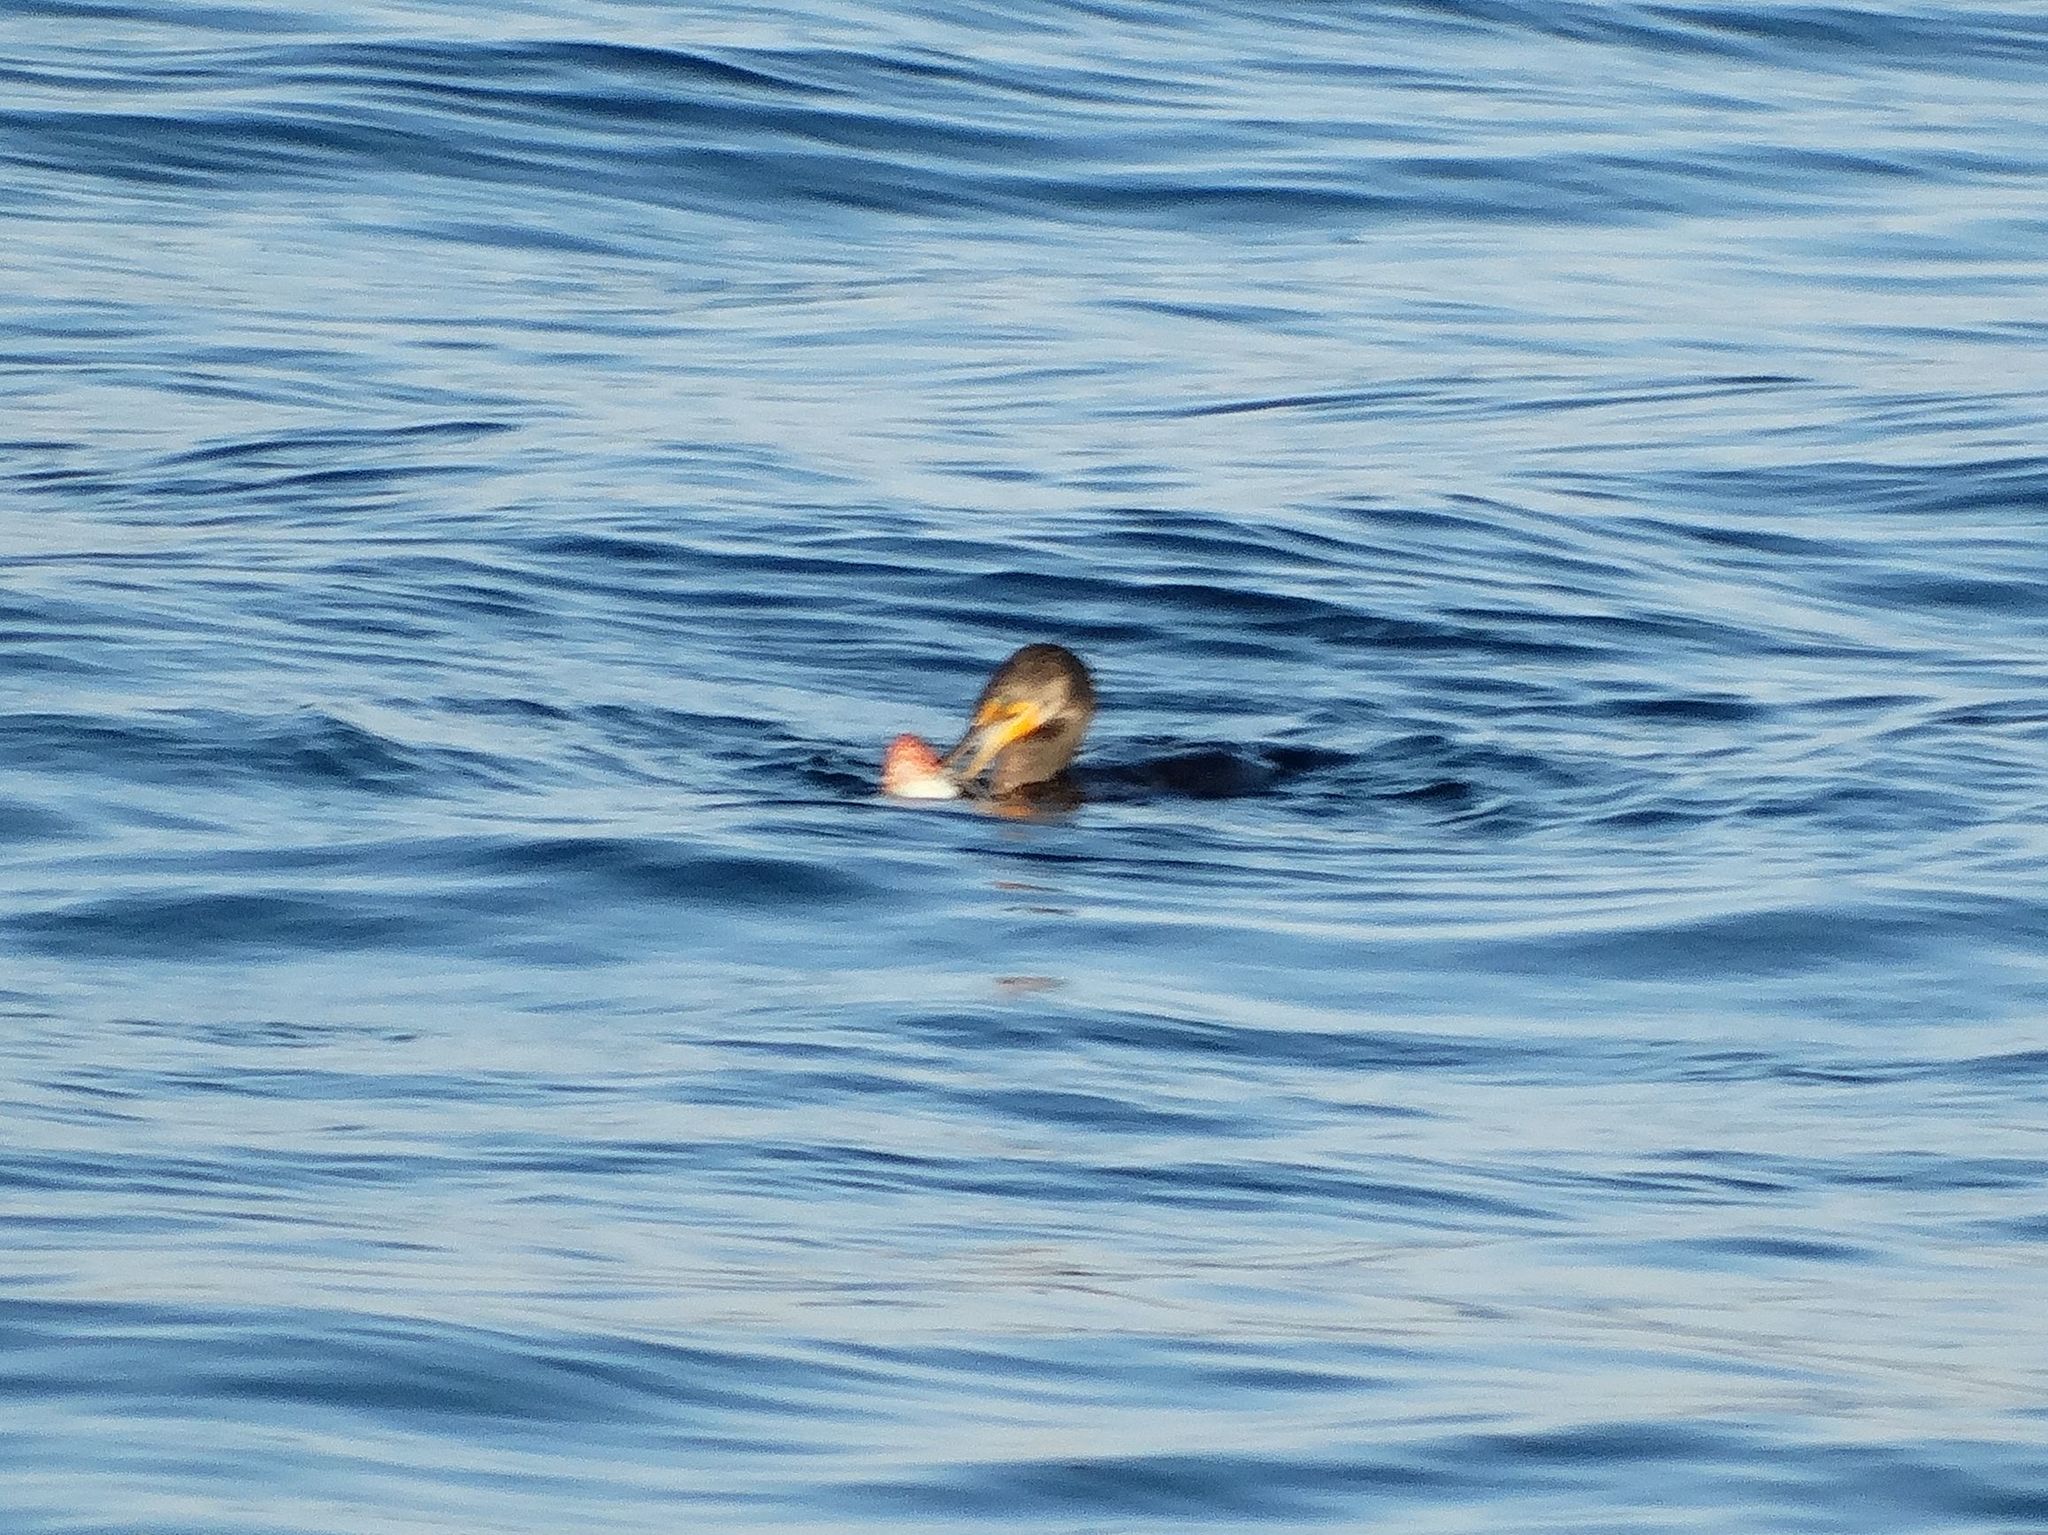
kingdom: Animalia
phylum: Chordata
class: Aves
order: Suliformes
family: Phalacrocoracidae
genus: Phalacrocorax
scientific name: Phalacrocorax auritus
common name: Double-crested cormorant
